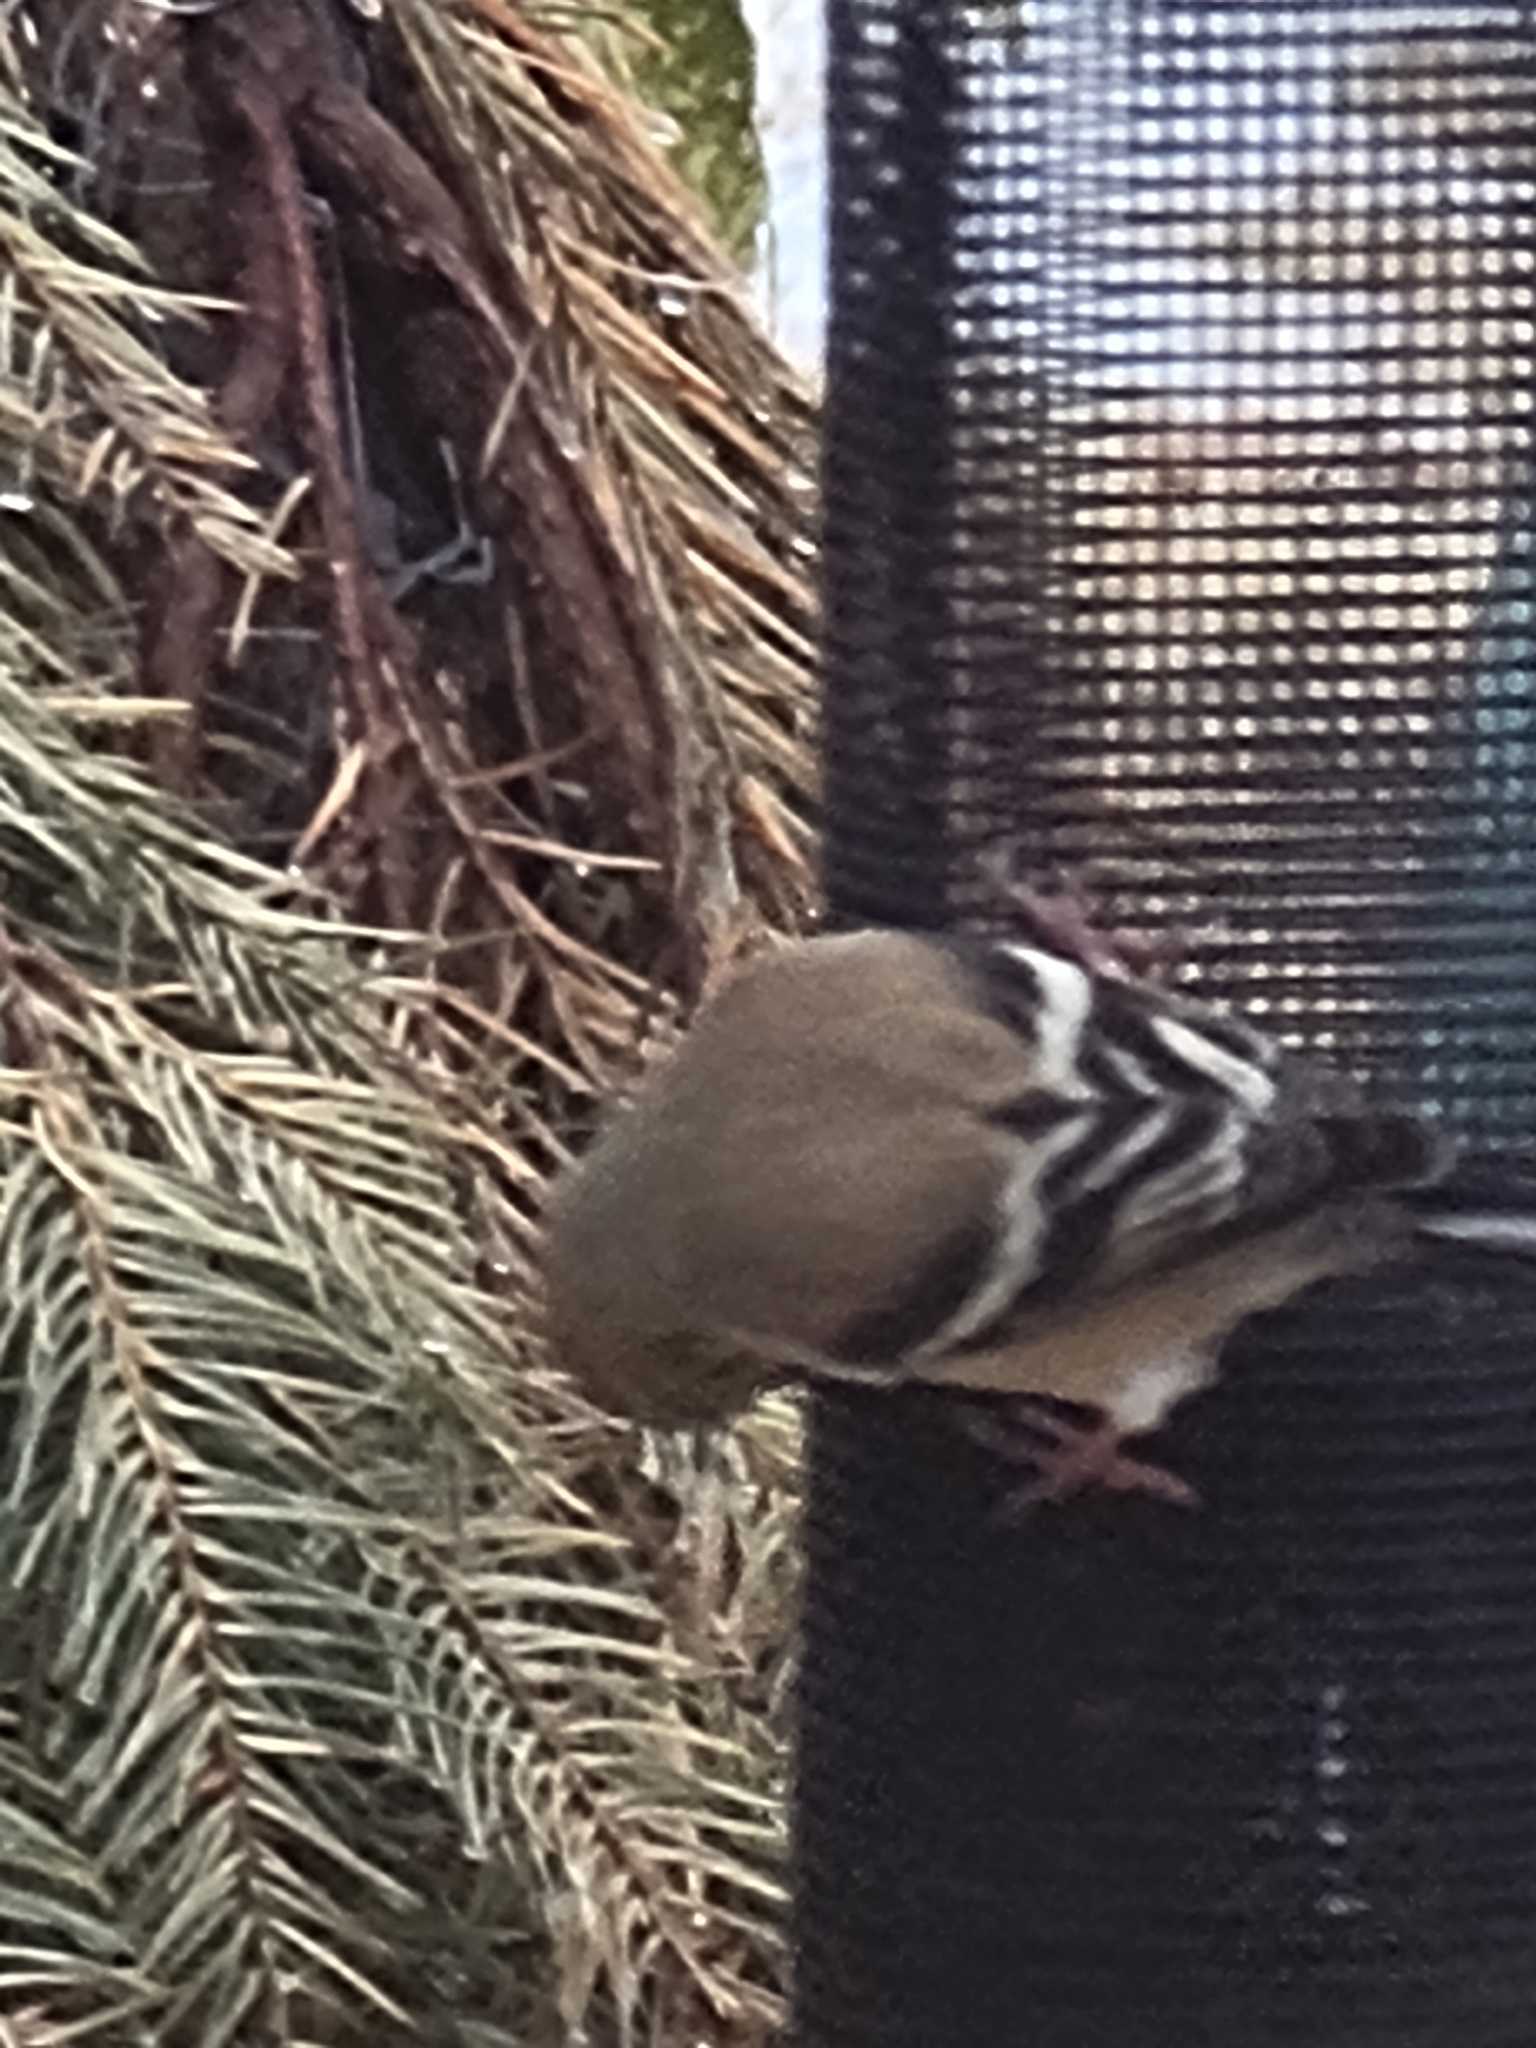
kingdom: Animalia
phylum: Chordata
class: Aves
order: Passeriformes
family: Fringillidae
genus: Spinus
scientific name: Spinus tristis
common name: American goldfinch
